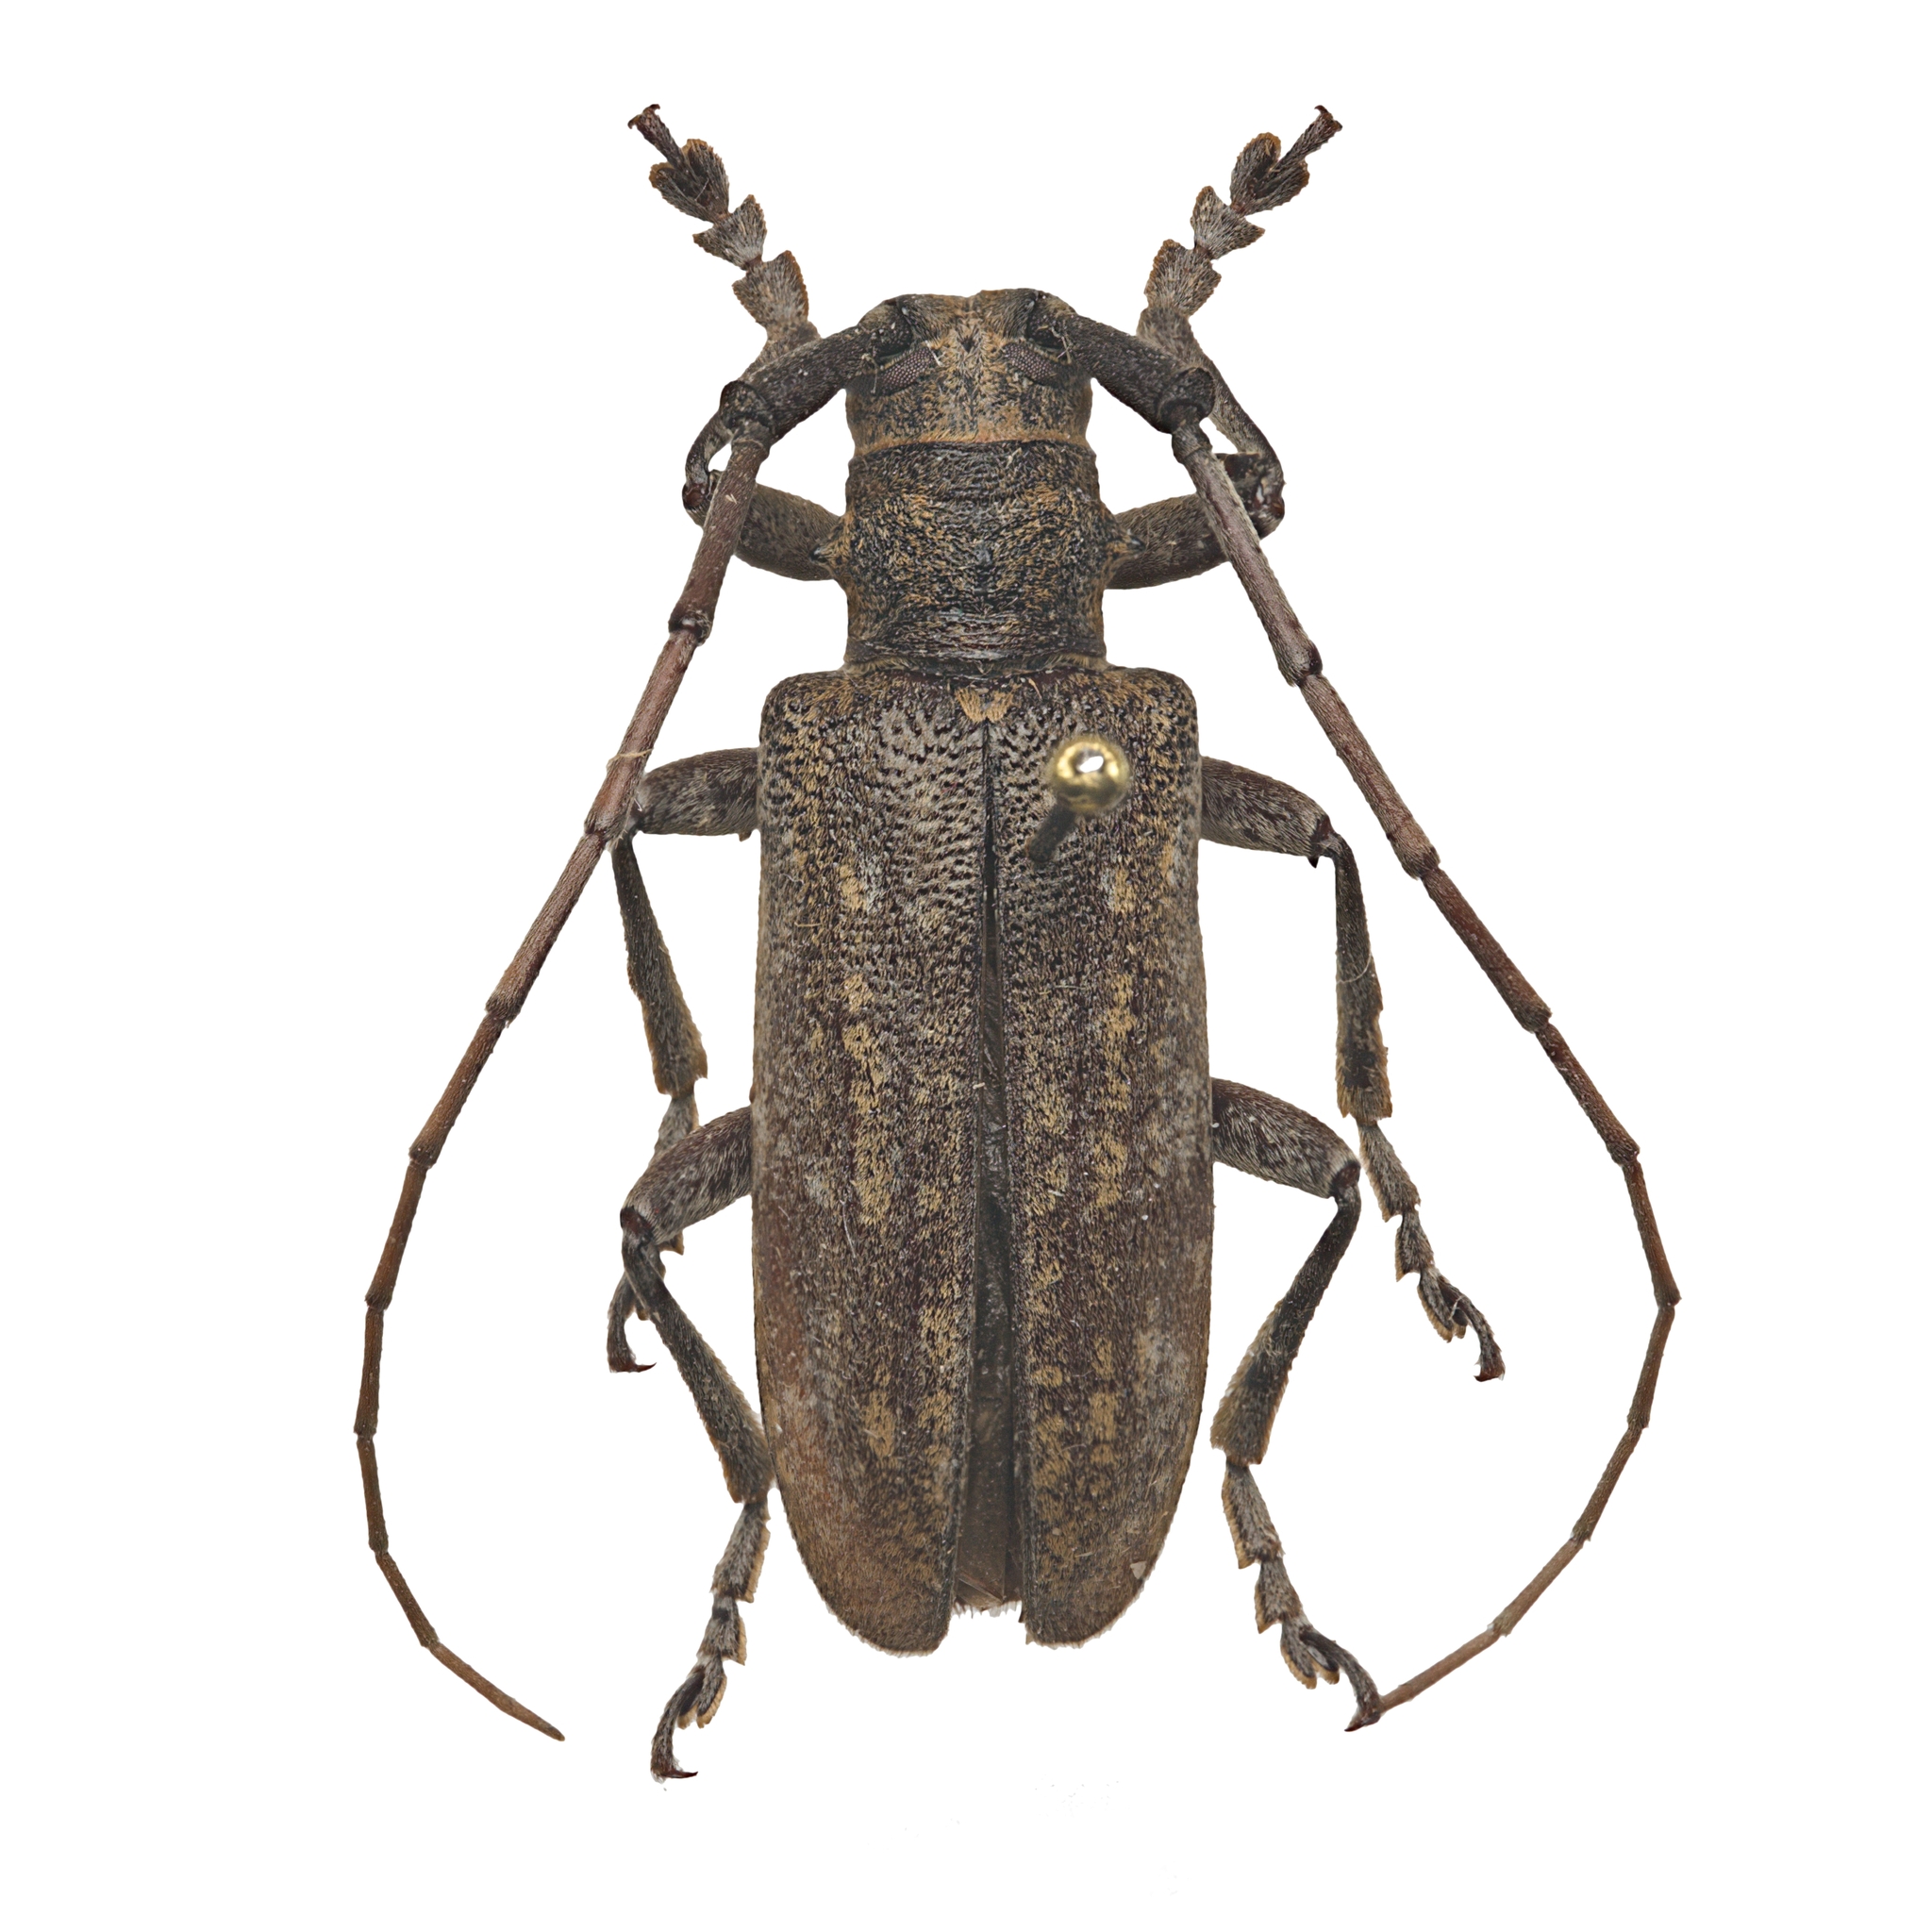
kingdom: Animalia
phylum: Arthropoda
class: Insecta
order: Coleoptera
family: Cerambycidae
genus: Goes
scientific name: Goes tesselatus
